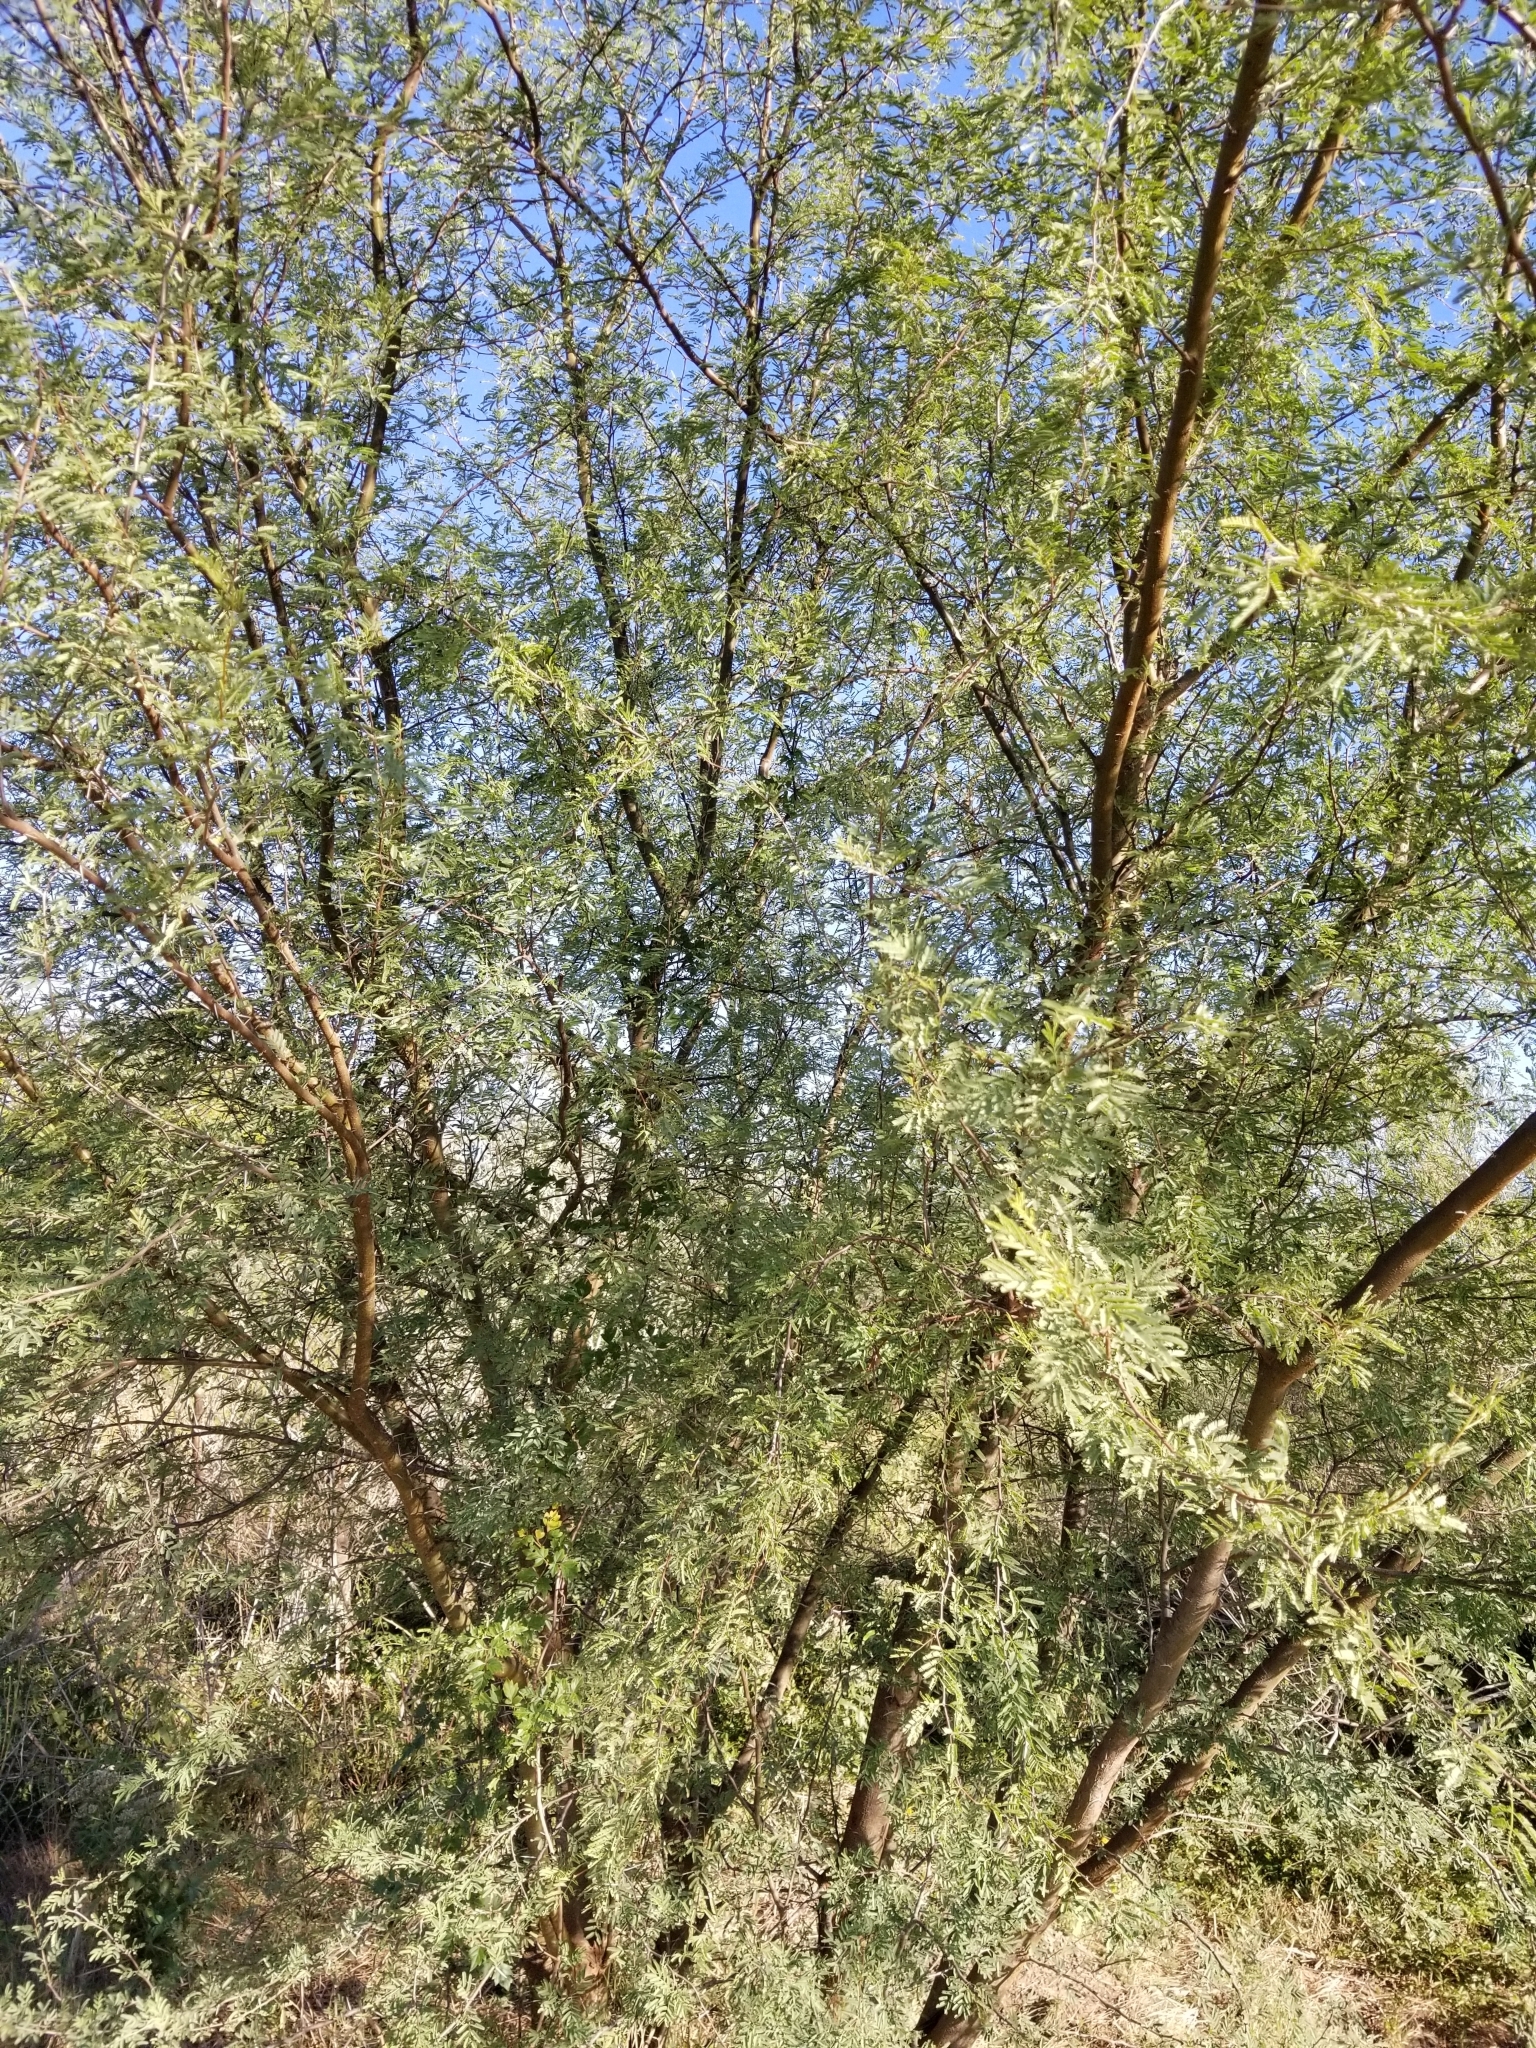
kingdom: Plantae
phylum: Tracheophyta
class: Magnoliopsida
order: Fabales
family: Fabaceae
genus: Vachellia
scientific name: Vachellia farnesiana
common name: Sweet acacia
